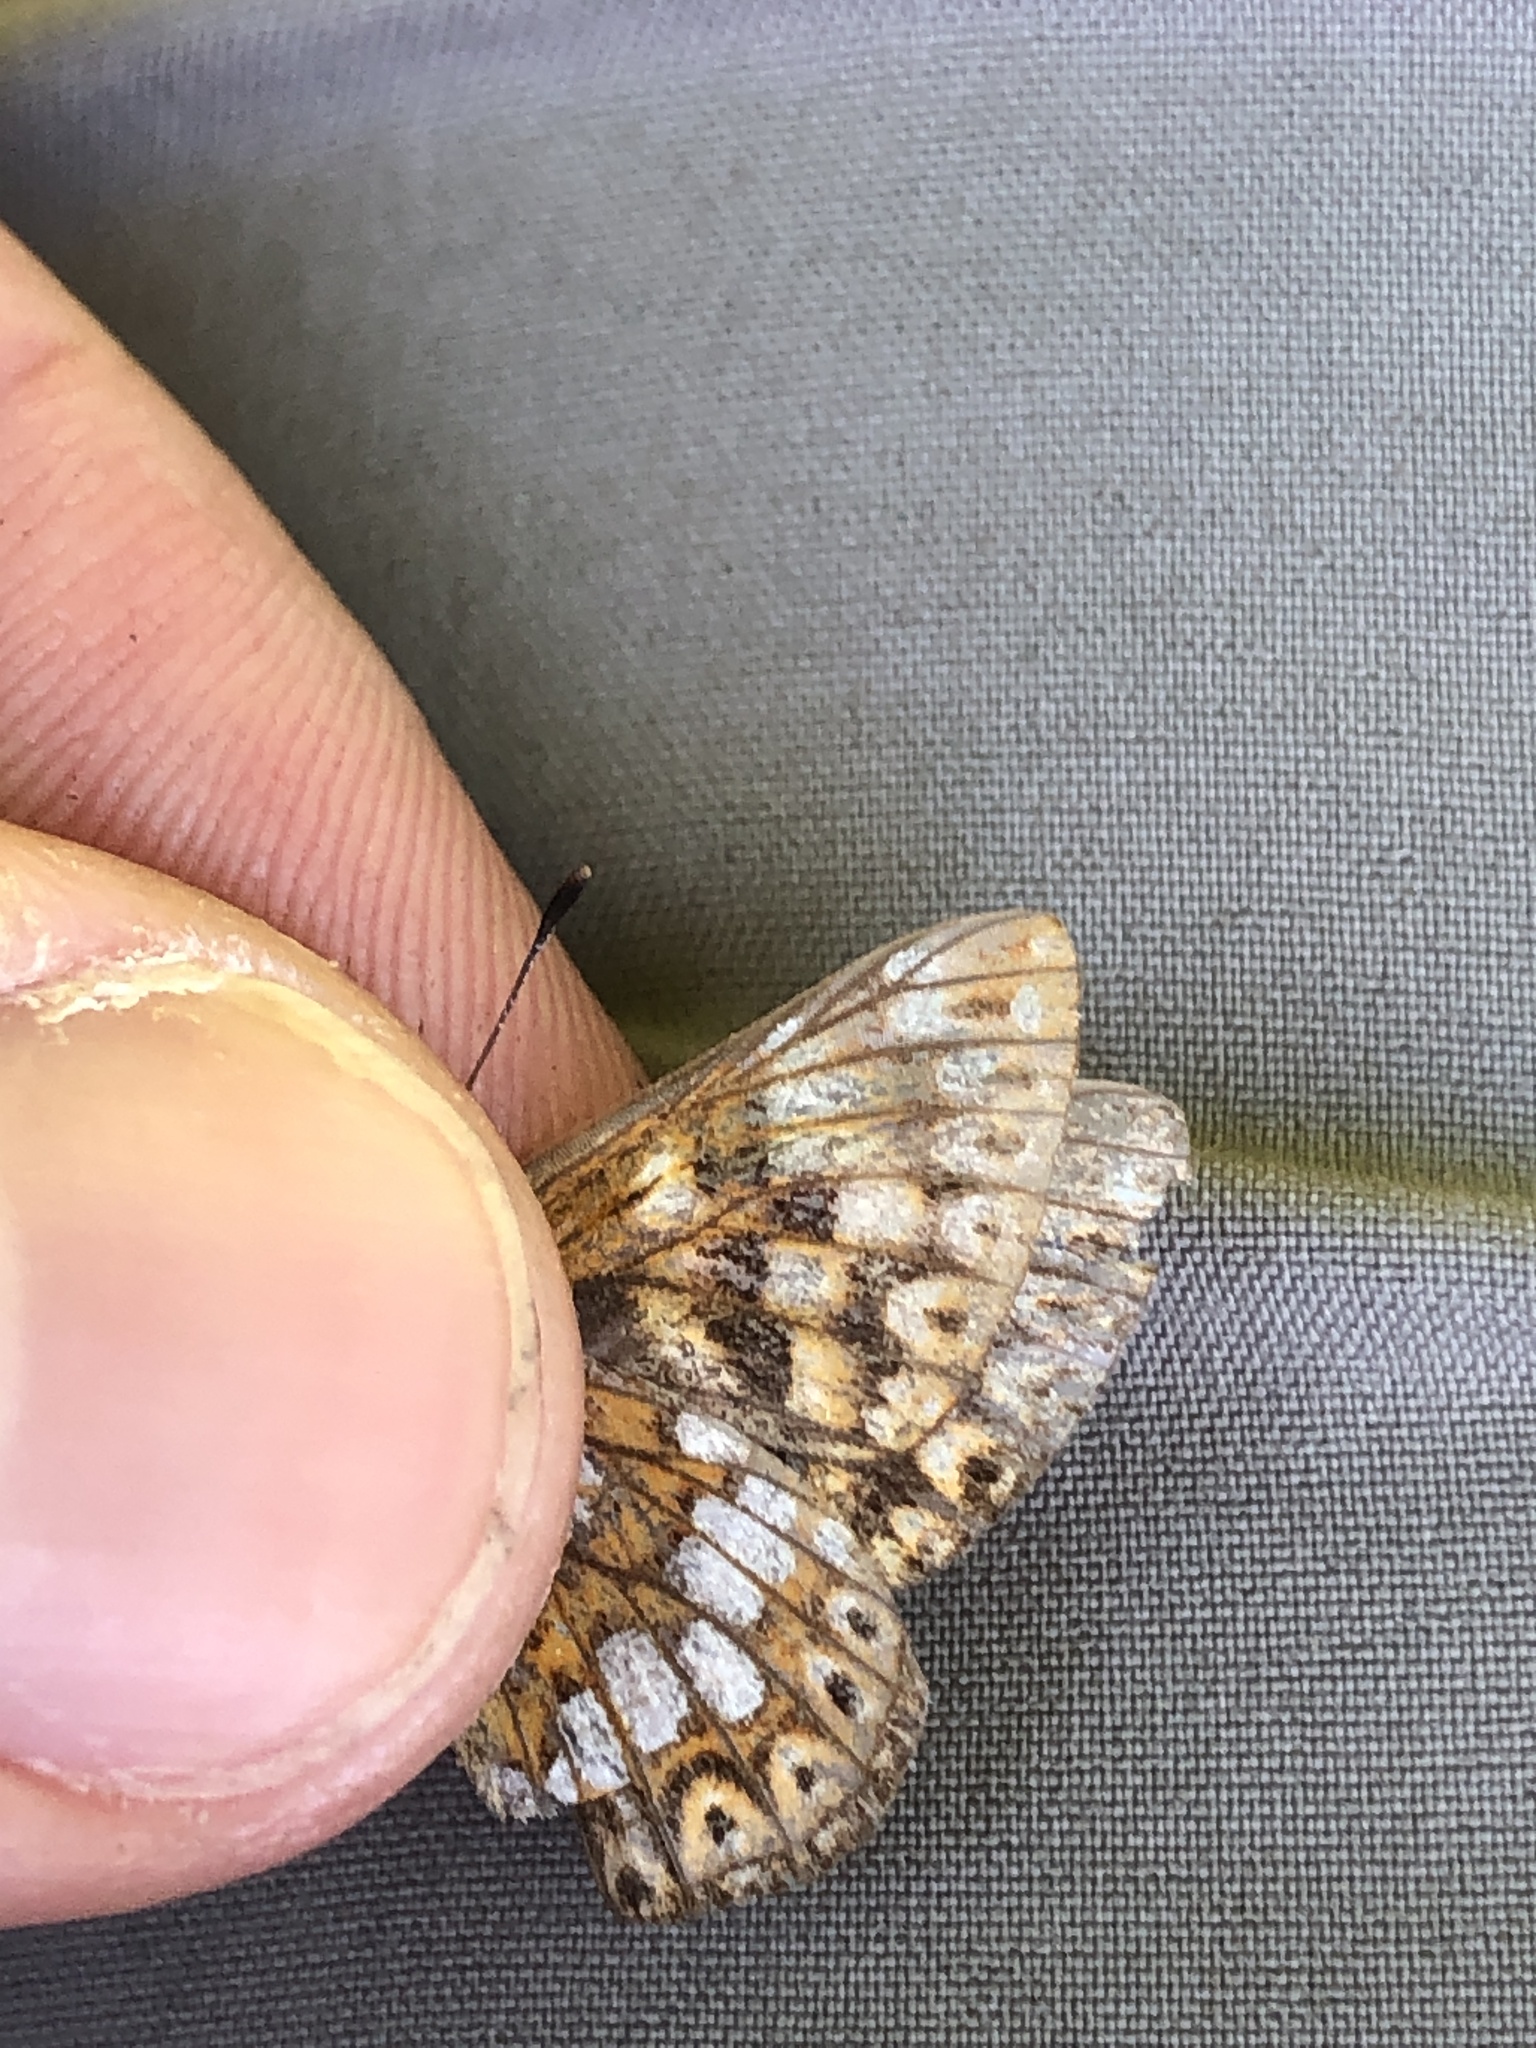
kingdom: Animalia
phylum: Arthropoda
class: Insecta
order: Lepidoptera
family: Riodinidae
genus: Hamearis
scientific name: Hamearis lucina
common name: Duke of burgundy fritillary
